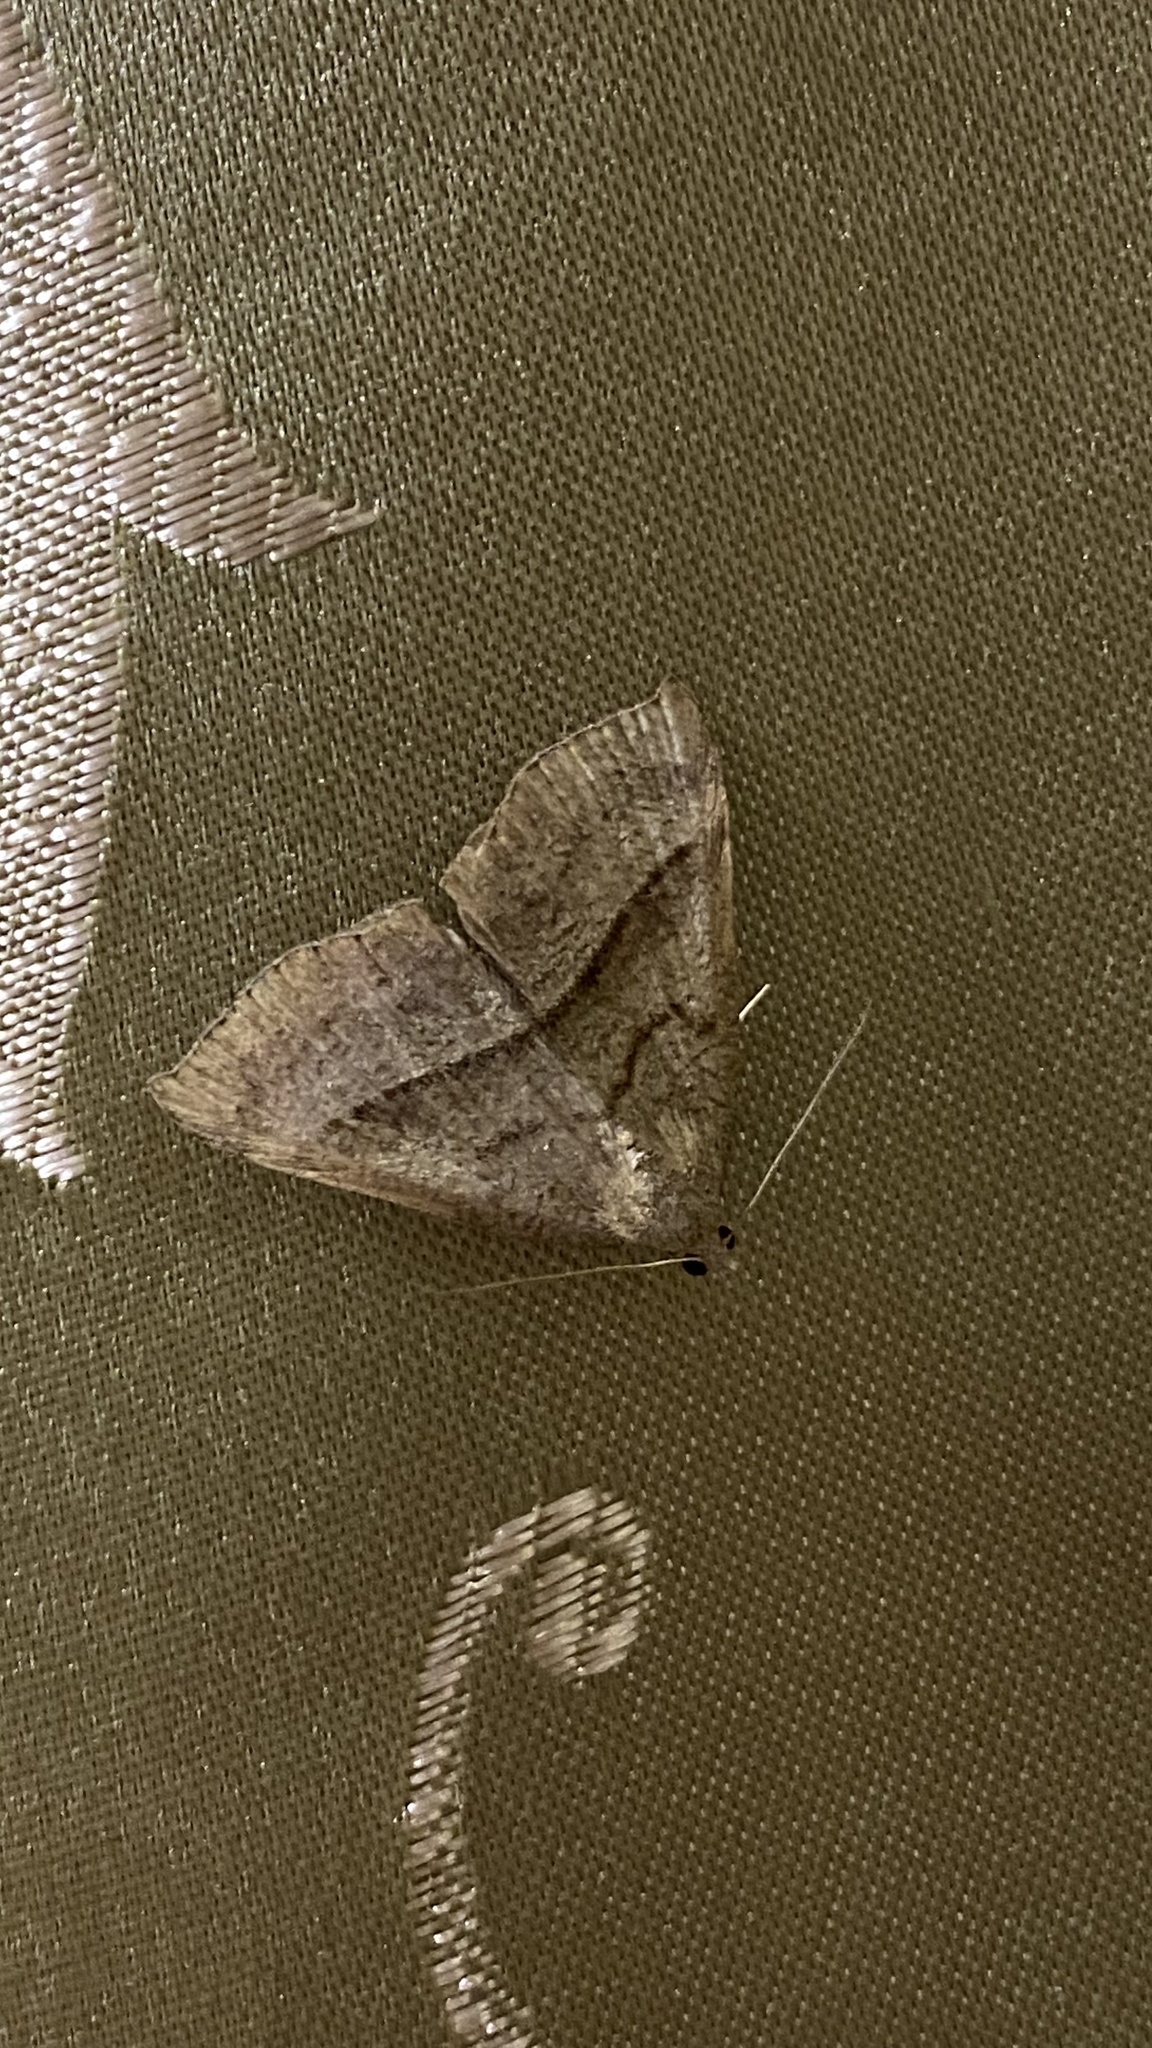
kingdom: Animalia
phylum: Arthropoda
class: Insecta
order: Lepidoptera
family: Erebidae
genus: Hypena
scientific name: Hypena proboscidalis
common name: Snout
